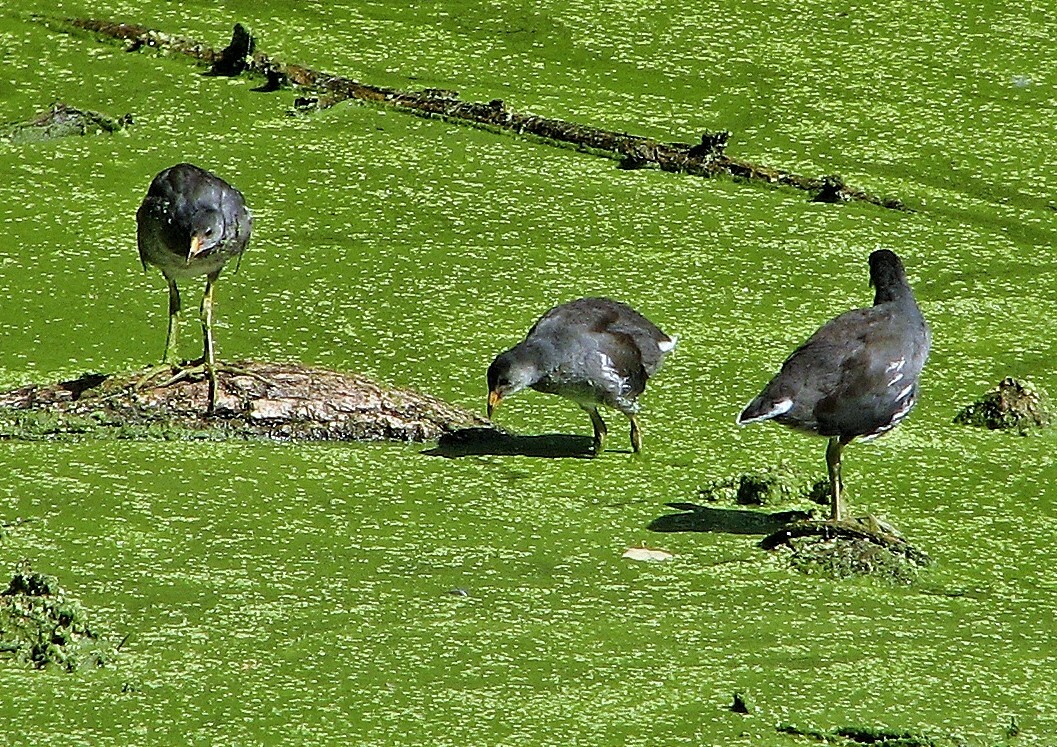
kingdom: Animalia
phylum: Chordata
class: Aves
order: Gruiformes
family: Rallidae
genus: Gallinula
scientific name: Gallinula chloropus
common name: Common moorhen
